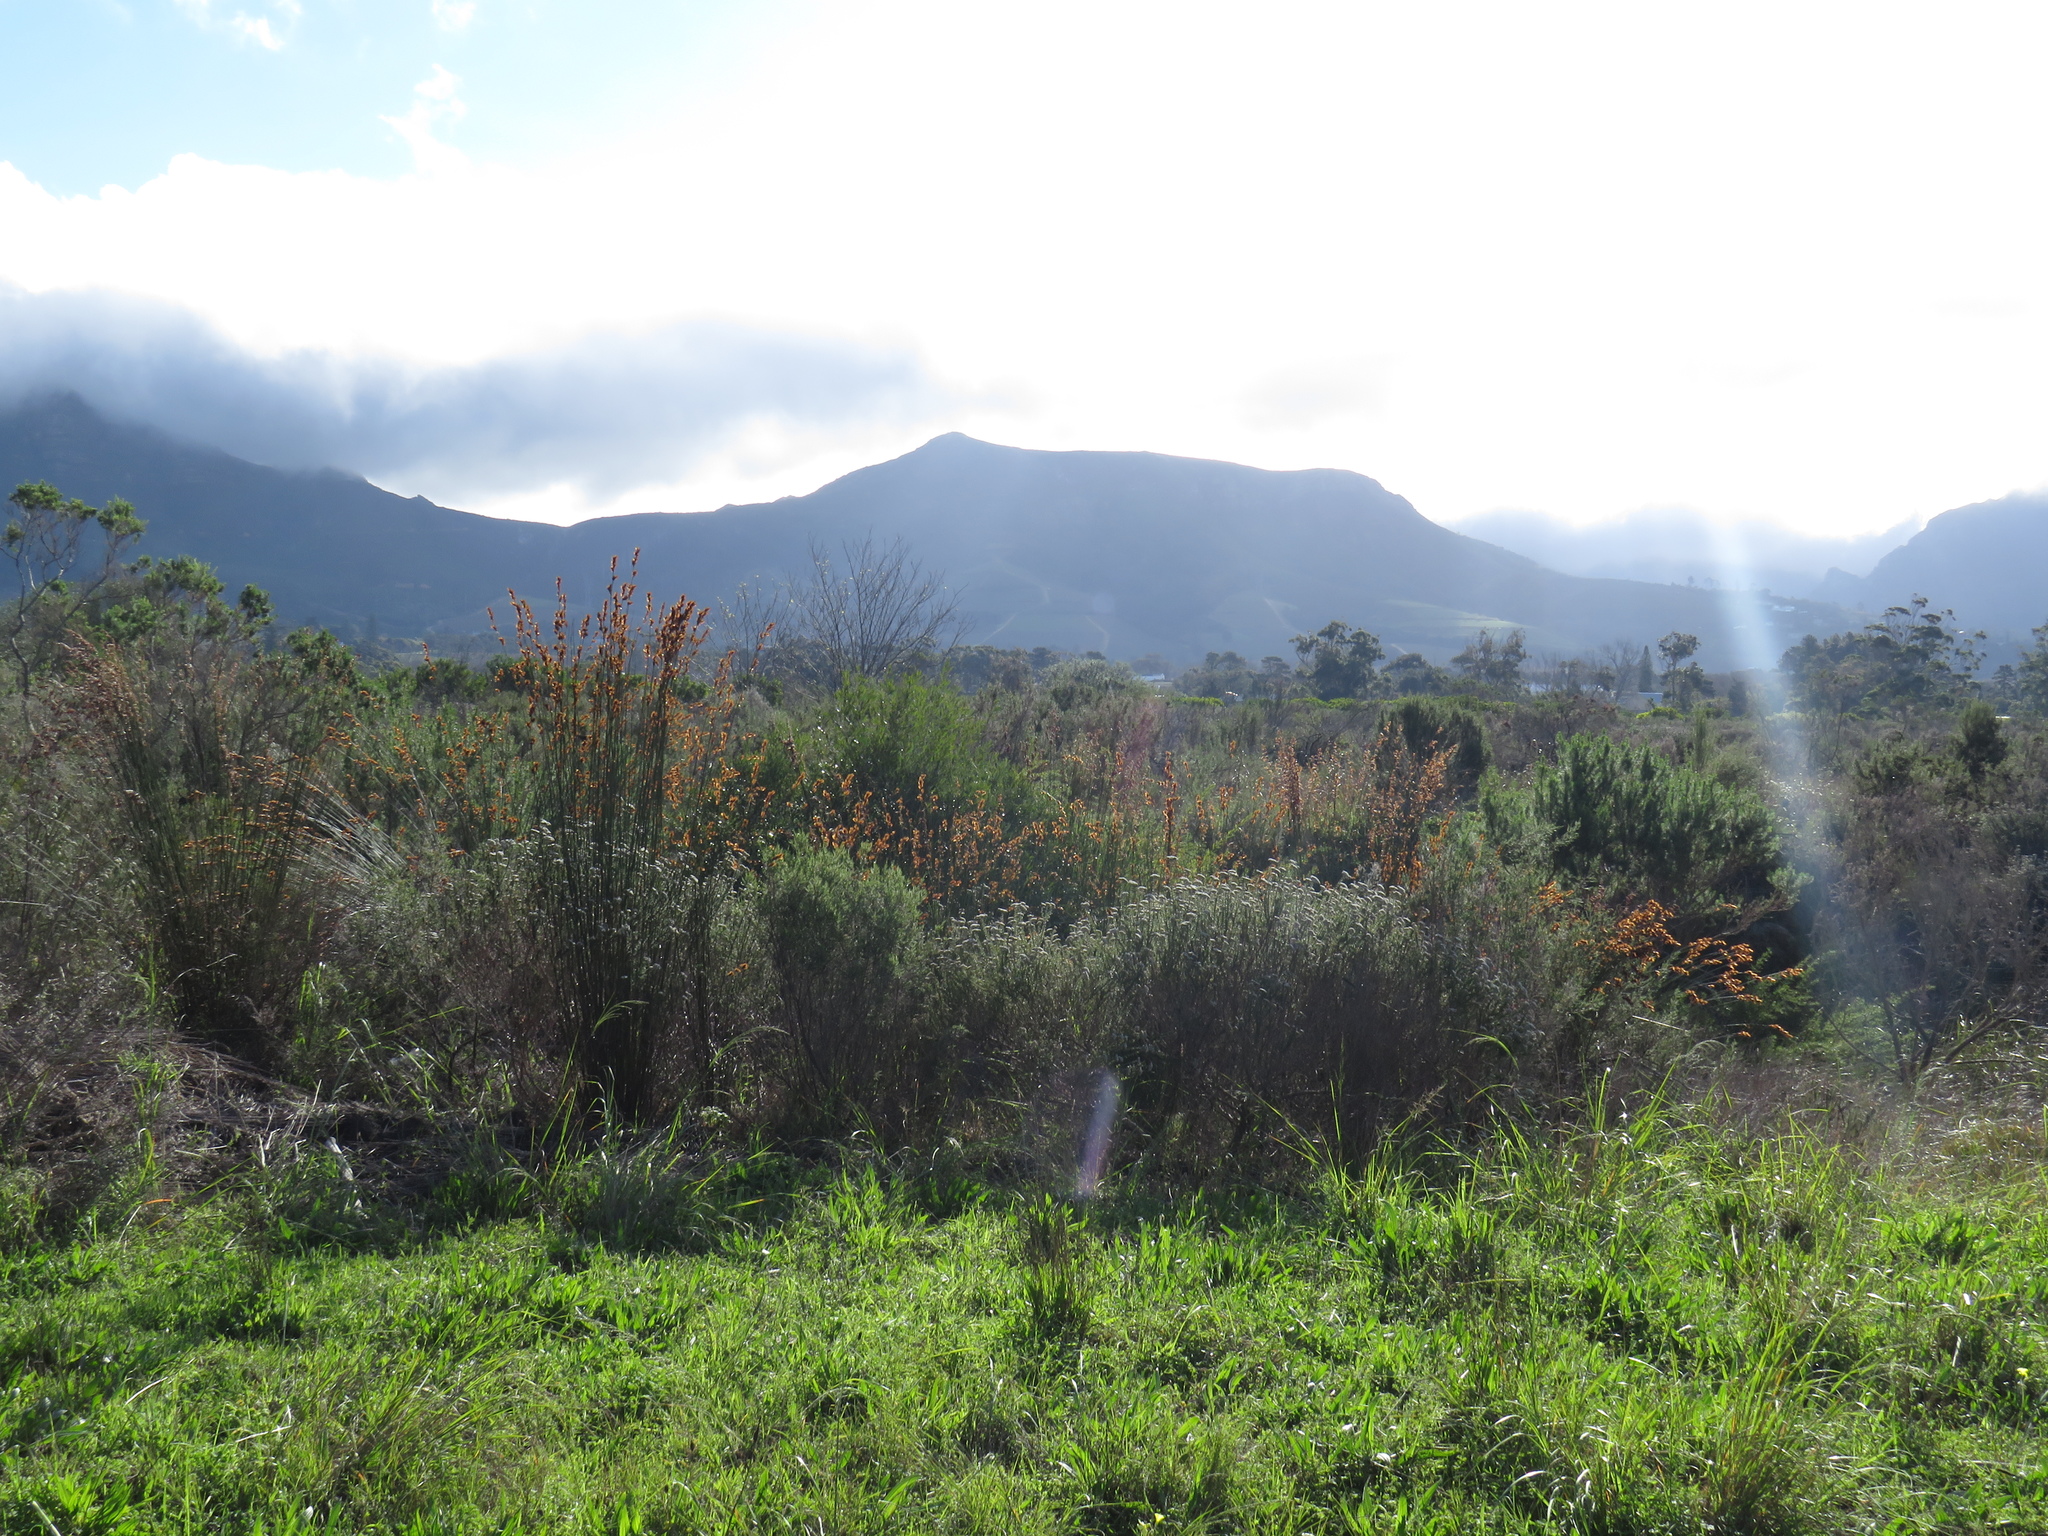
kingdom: Plantae
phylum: Tracheophyta
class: Liliopsida
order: Poales
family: Restionaceae
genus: Thamnochortus
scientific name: Thamnochortus insignis
